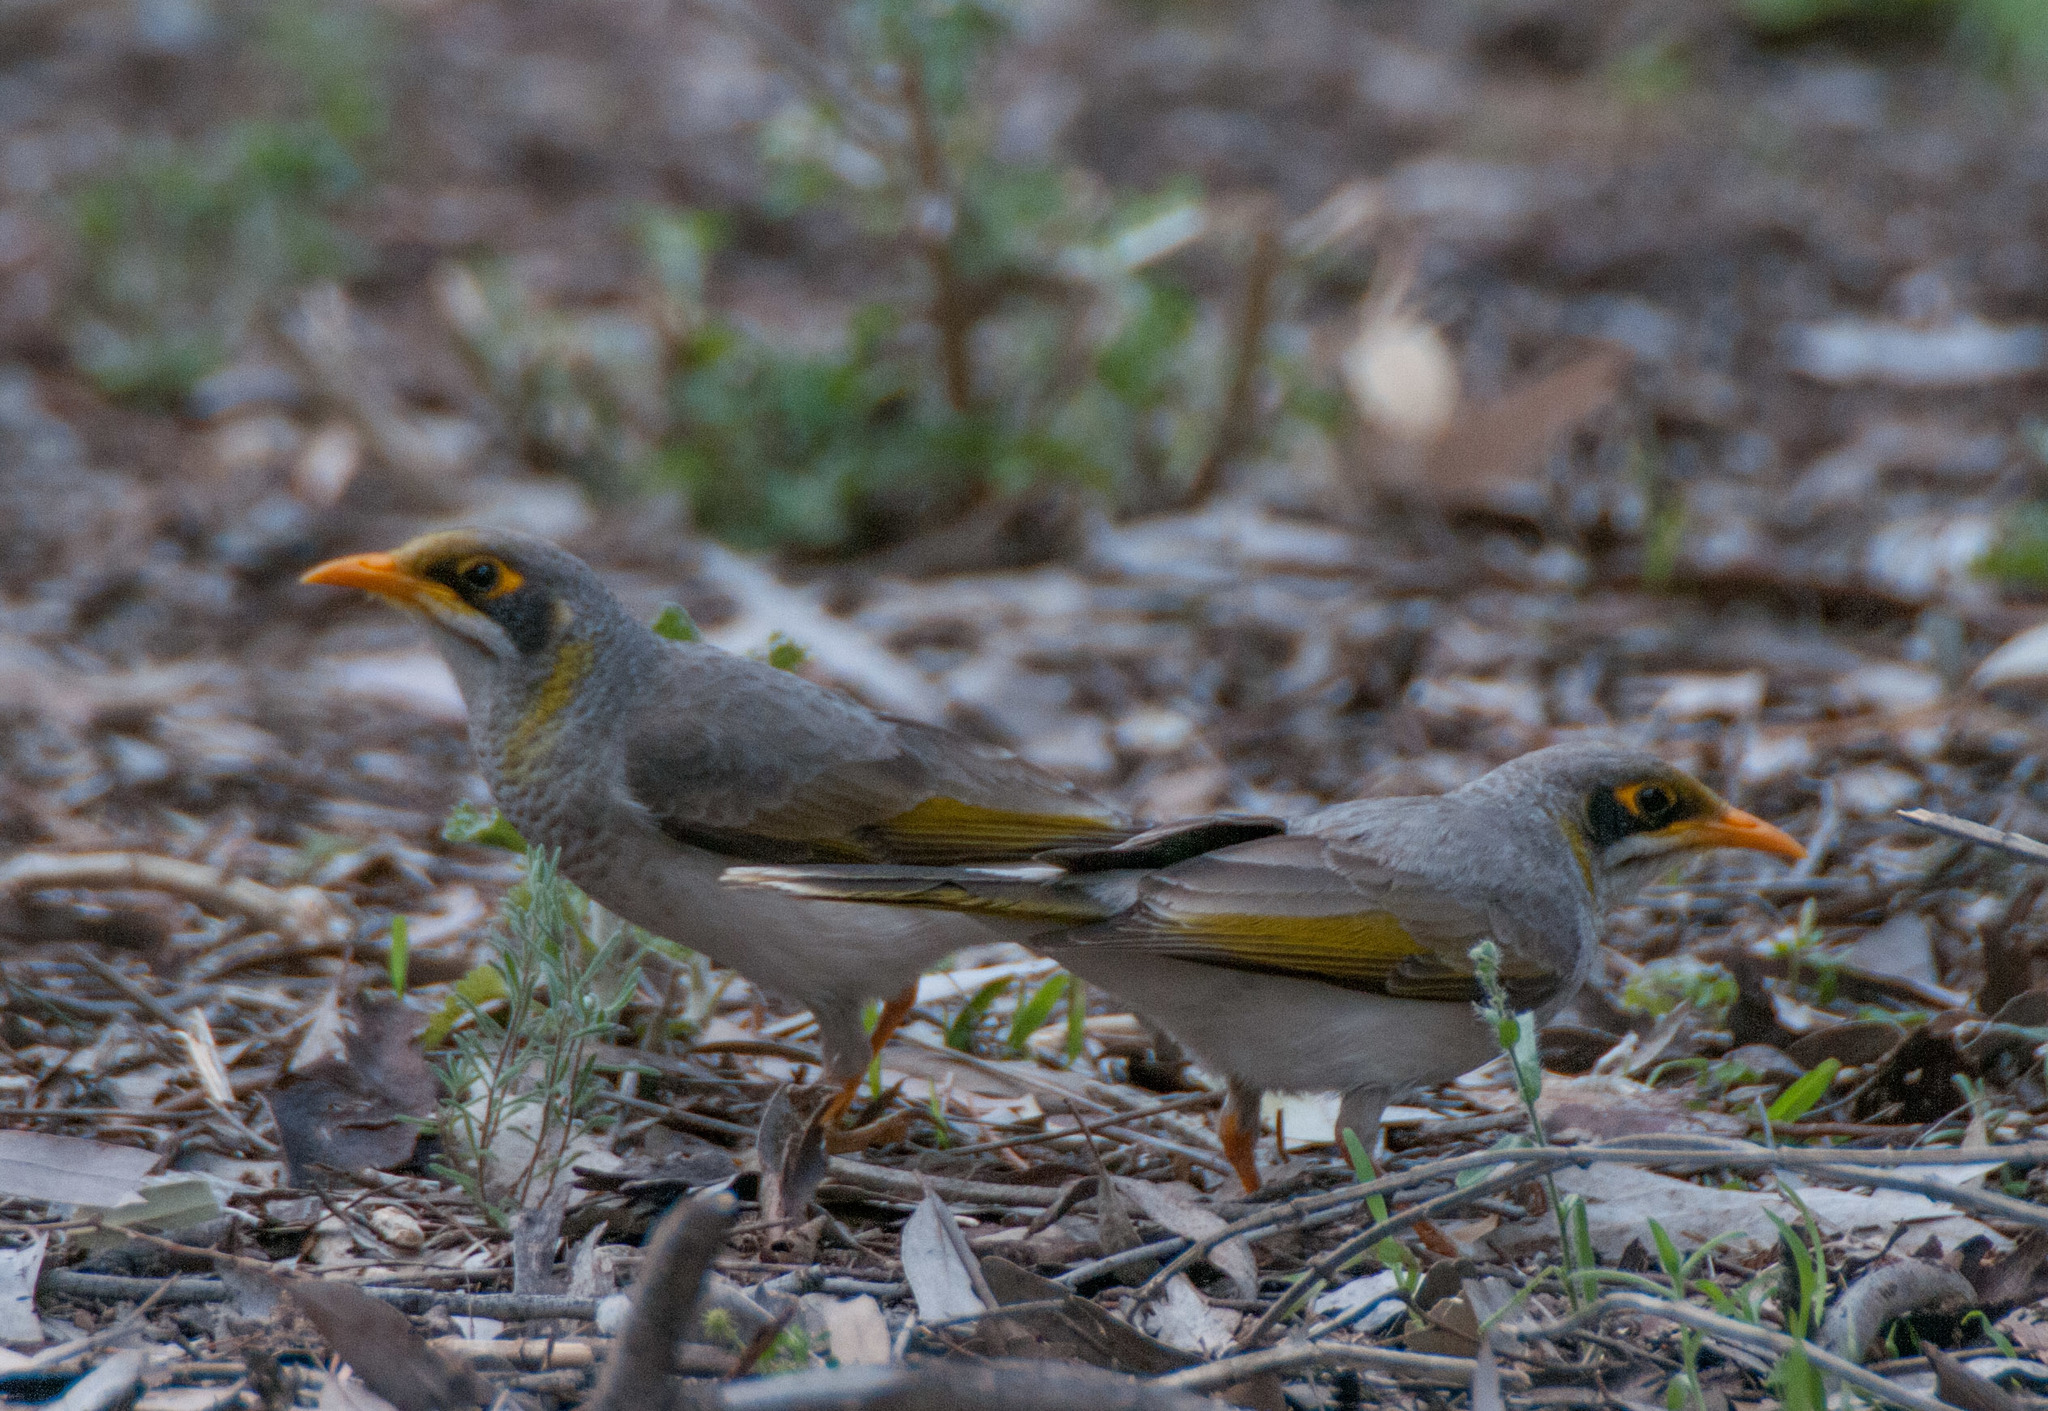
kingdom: Animalia
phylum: Chordata
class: Aves
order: Passeriformes
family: Meliphagidae
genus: Manorina
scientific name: Manorina flavigula
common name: Yellow-throated miner
